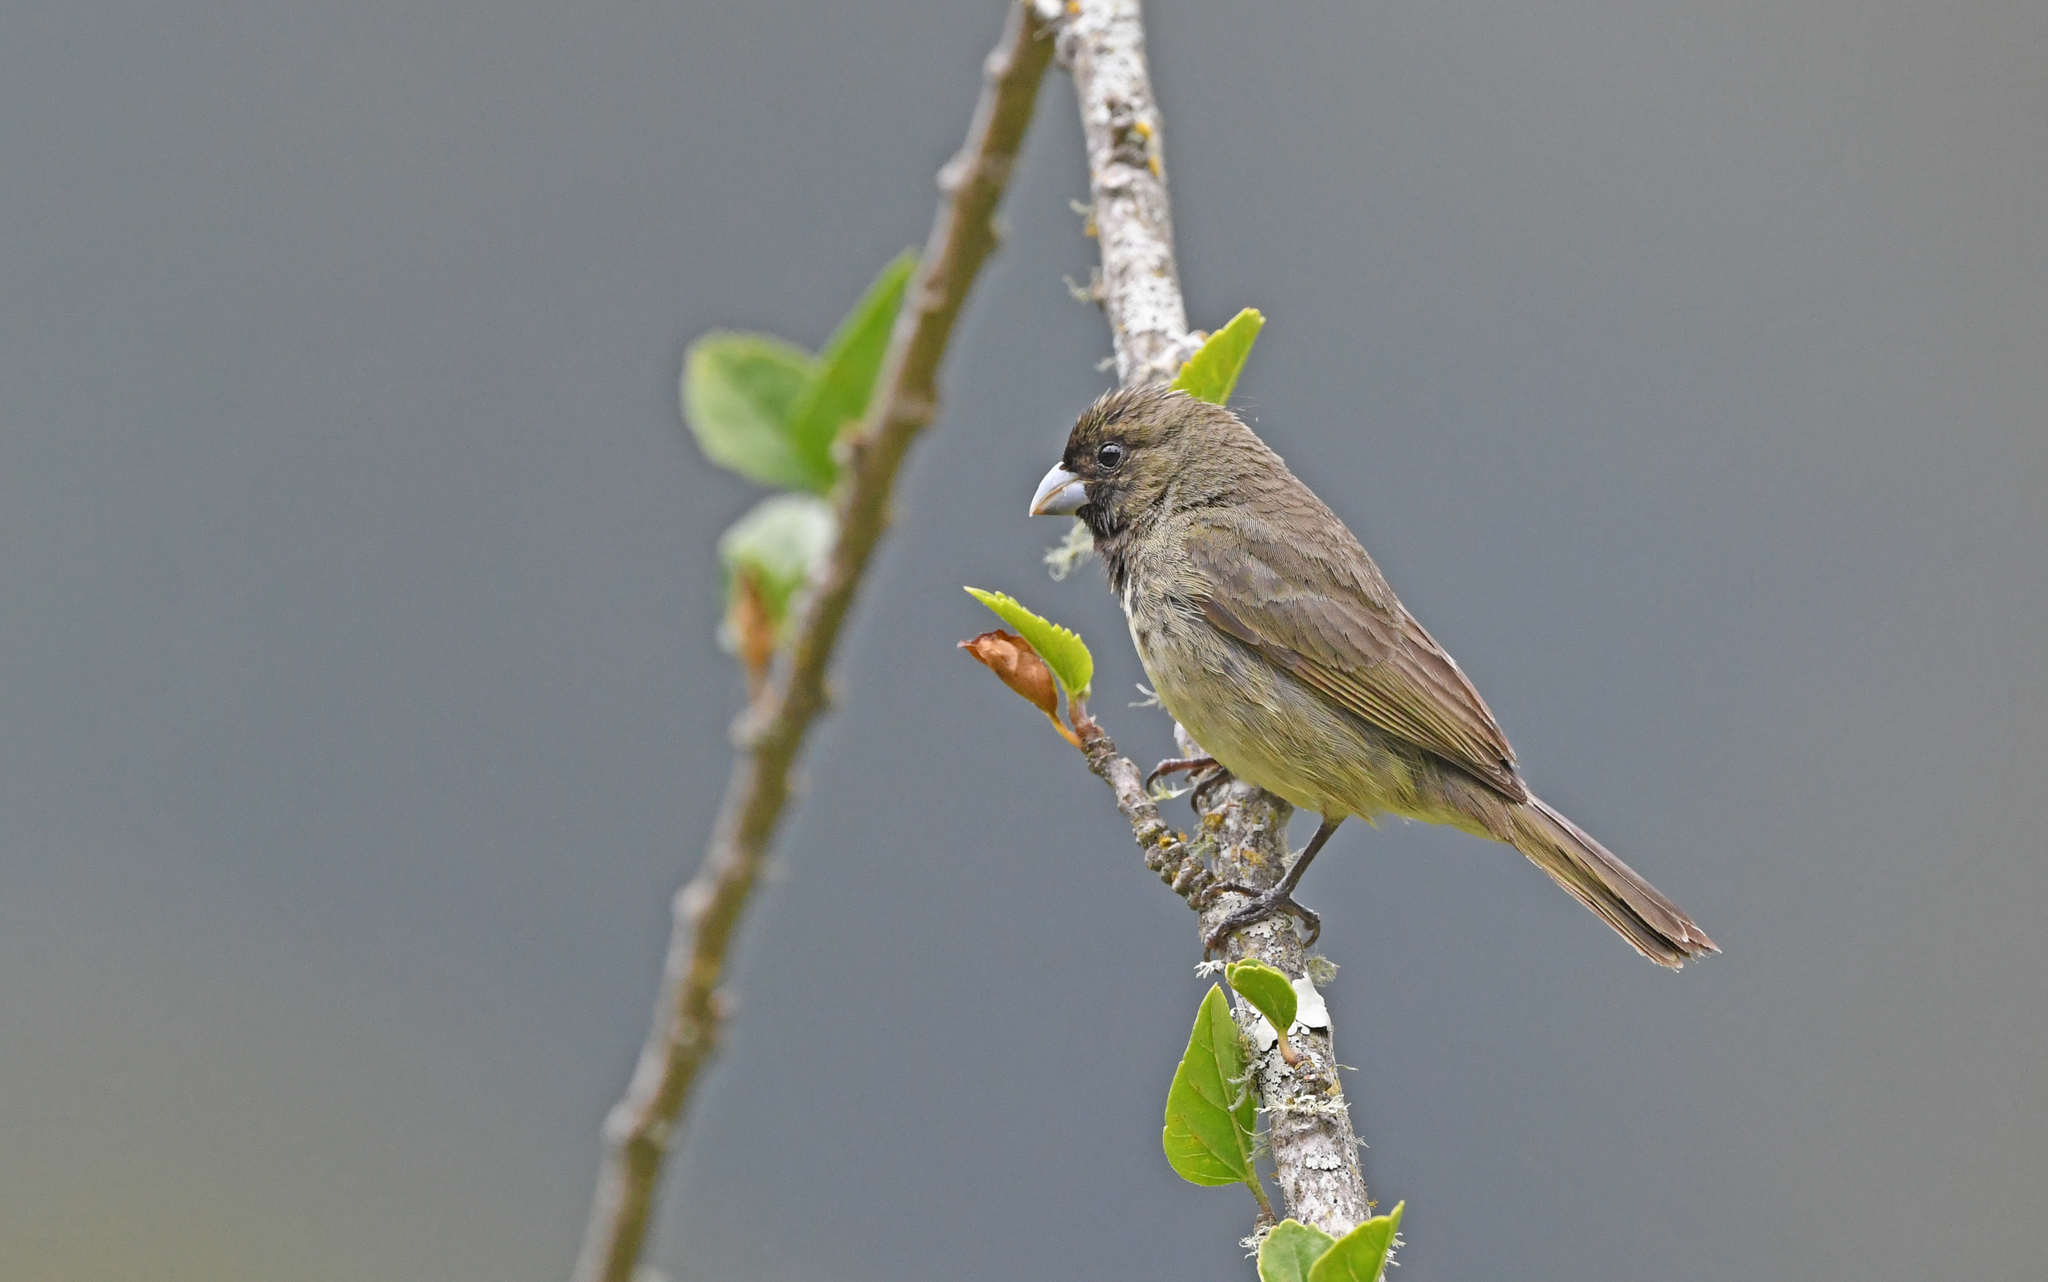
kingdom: Animalia
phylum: Chordata
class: Aves
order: Passeriformes
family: Thraupidae
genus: Sporophila
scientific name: Sporophila nigricollis
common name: Yellow-bellied seedeater
